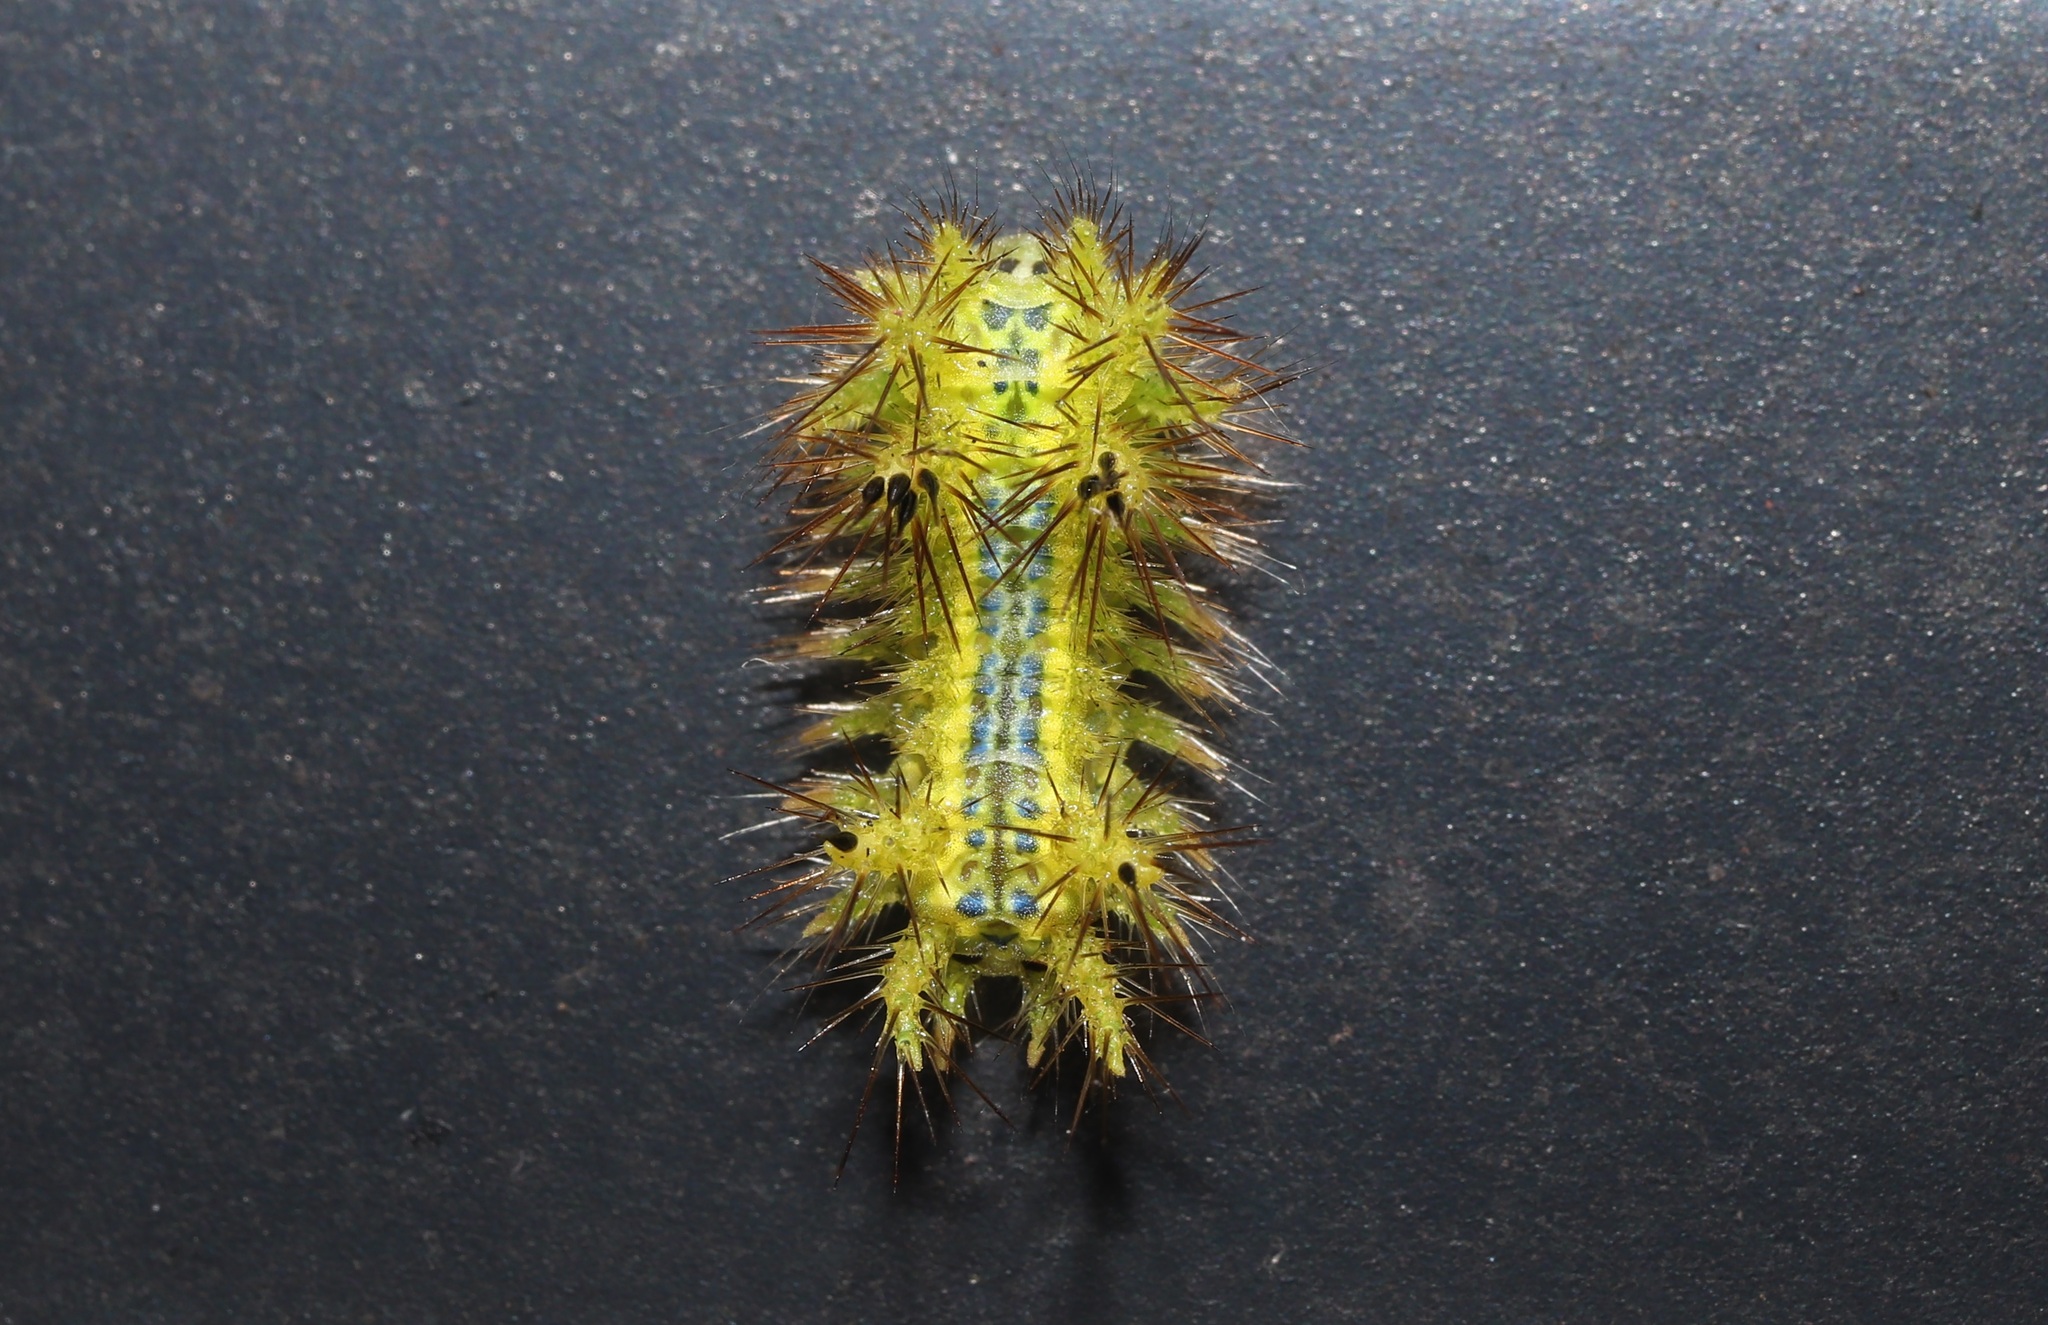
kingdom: Animalia
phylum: Arthropoda
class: Insecta
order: Lepidoptera
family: Limacodidae
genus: Parasa
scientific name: Parasa lepida
